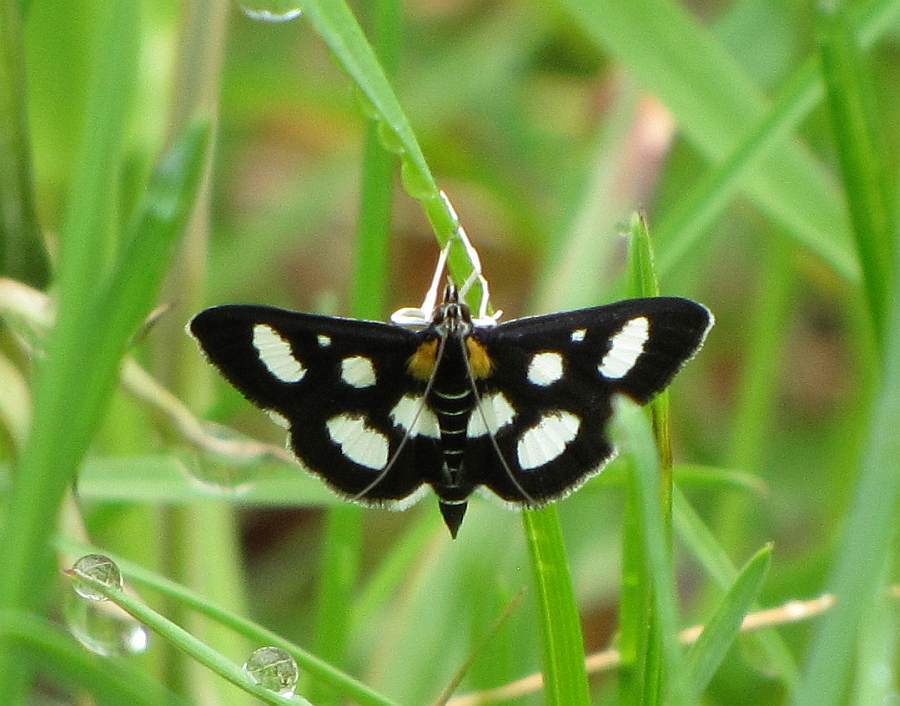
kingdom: Animalia
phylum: Arthropoda
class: Insecta
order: Lepidoptera
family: Crambidae
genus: Anania
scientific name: Anania funebris
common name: White-spotted sable moth
